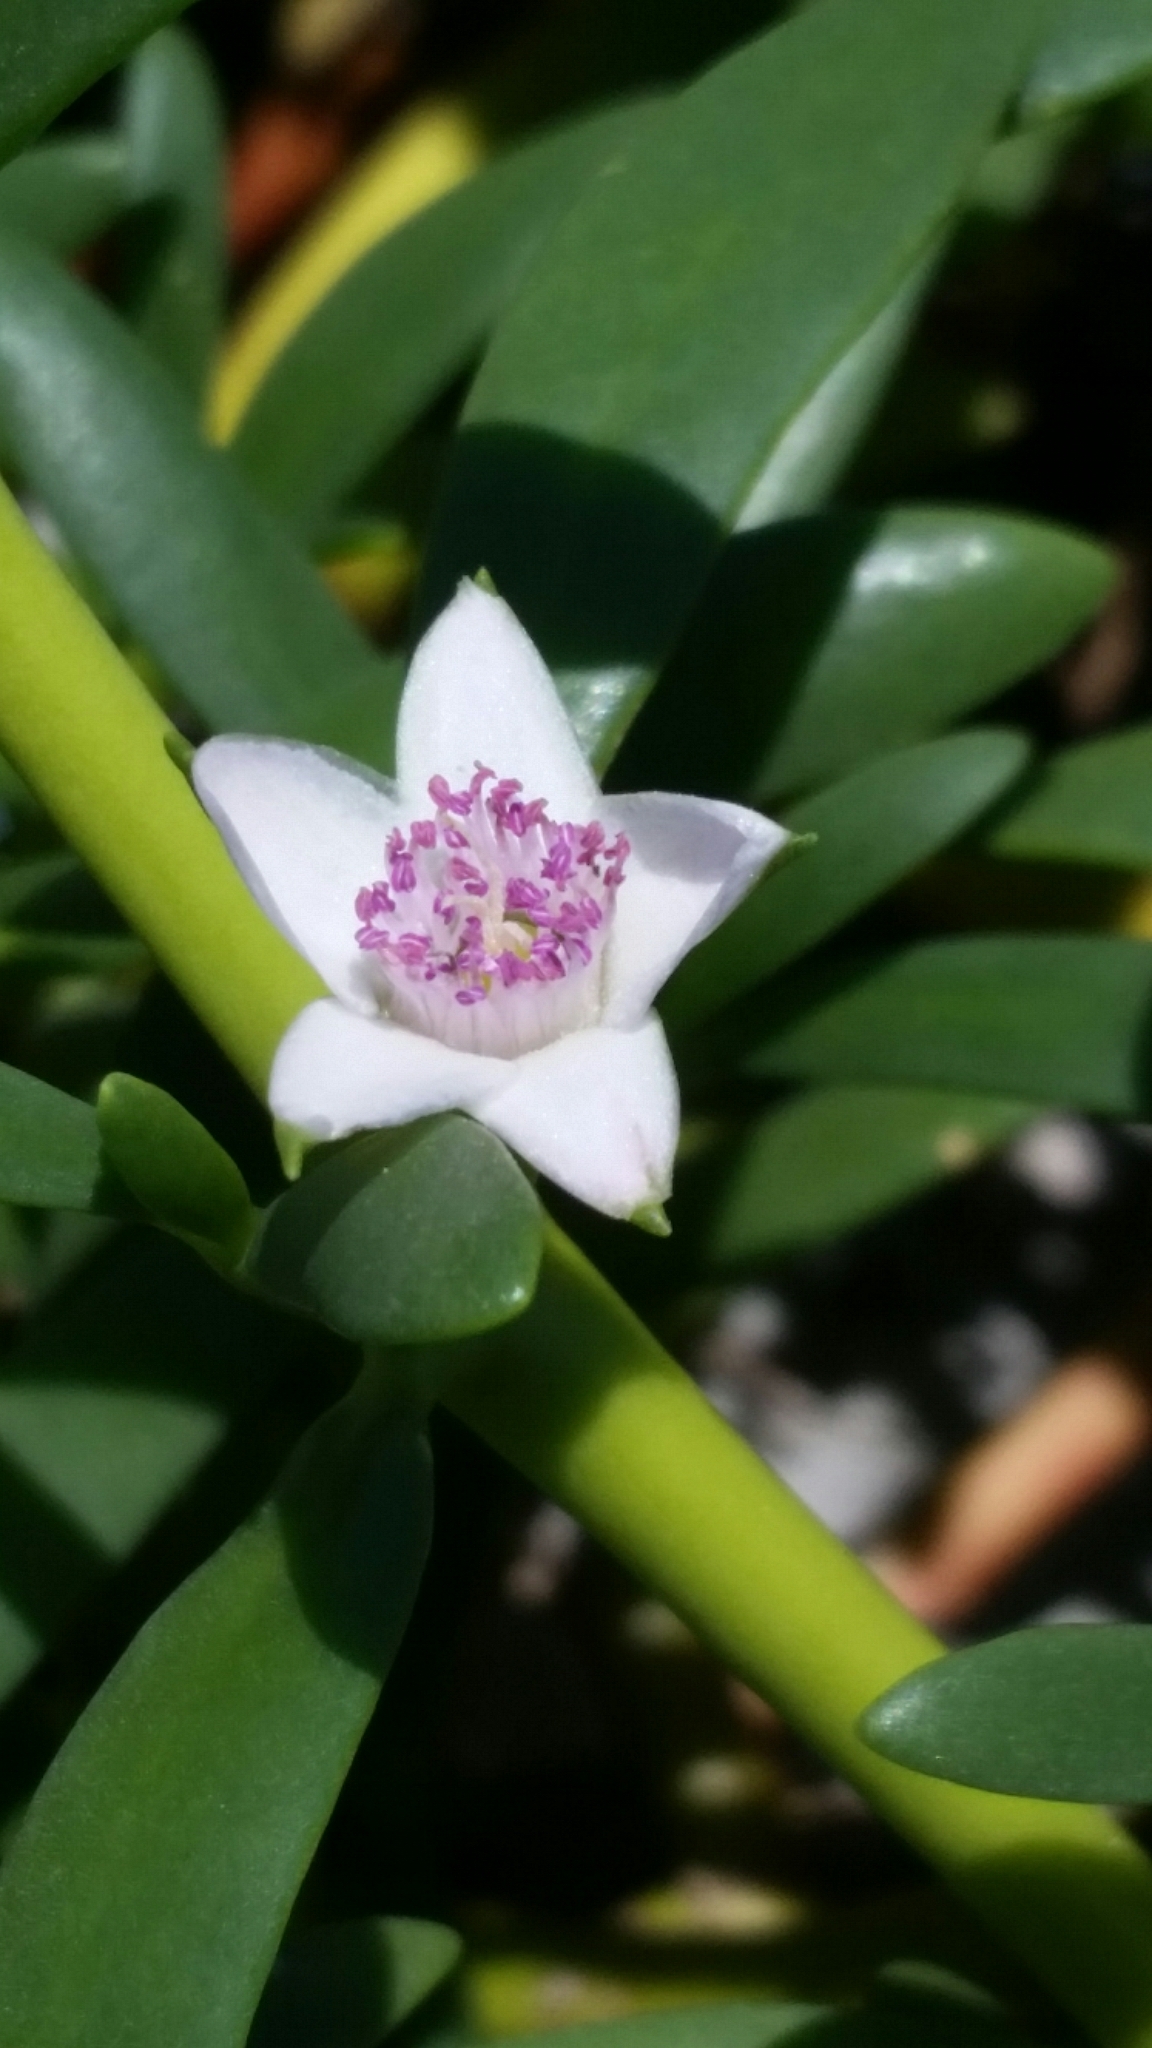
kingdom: Plantae
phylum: Tracheophyta
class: Magnoliopsida
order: Caryophyllales
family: Aizoaceae
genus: Sesuvium
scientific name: Sesuvium portulacastrum
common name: Sea-purslane
